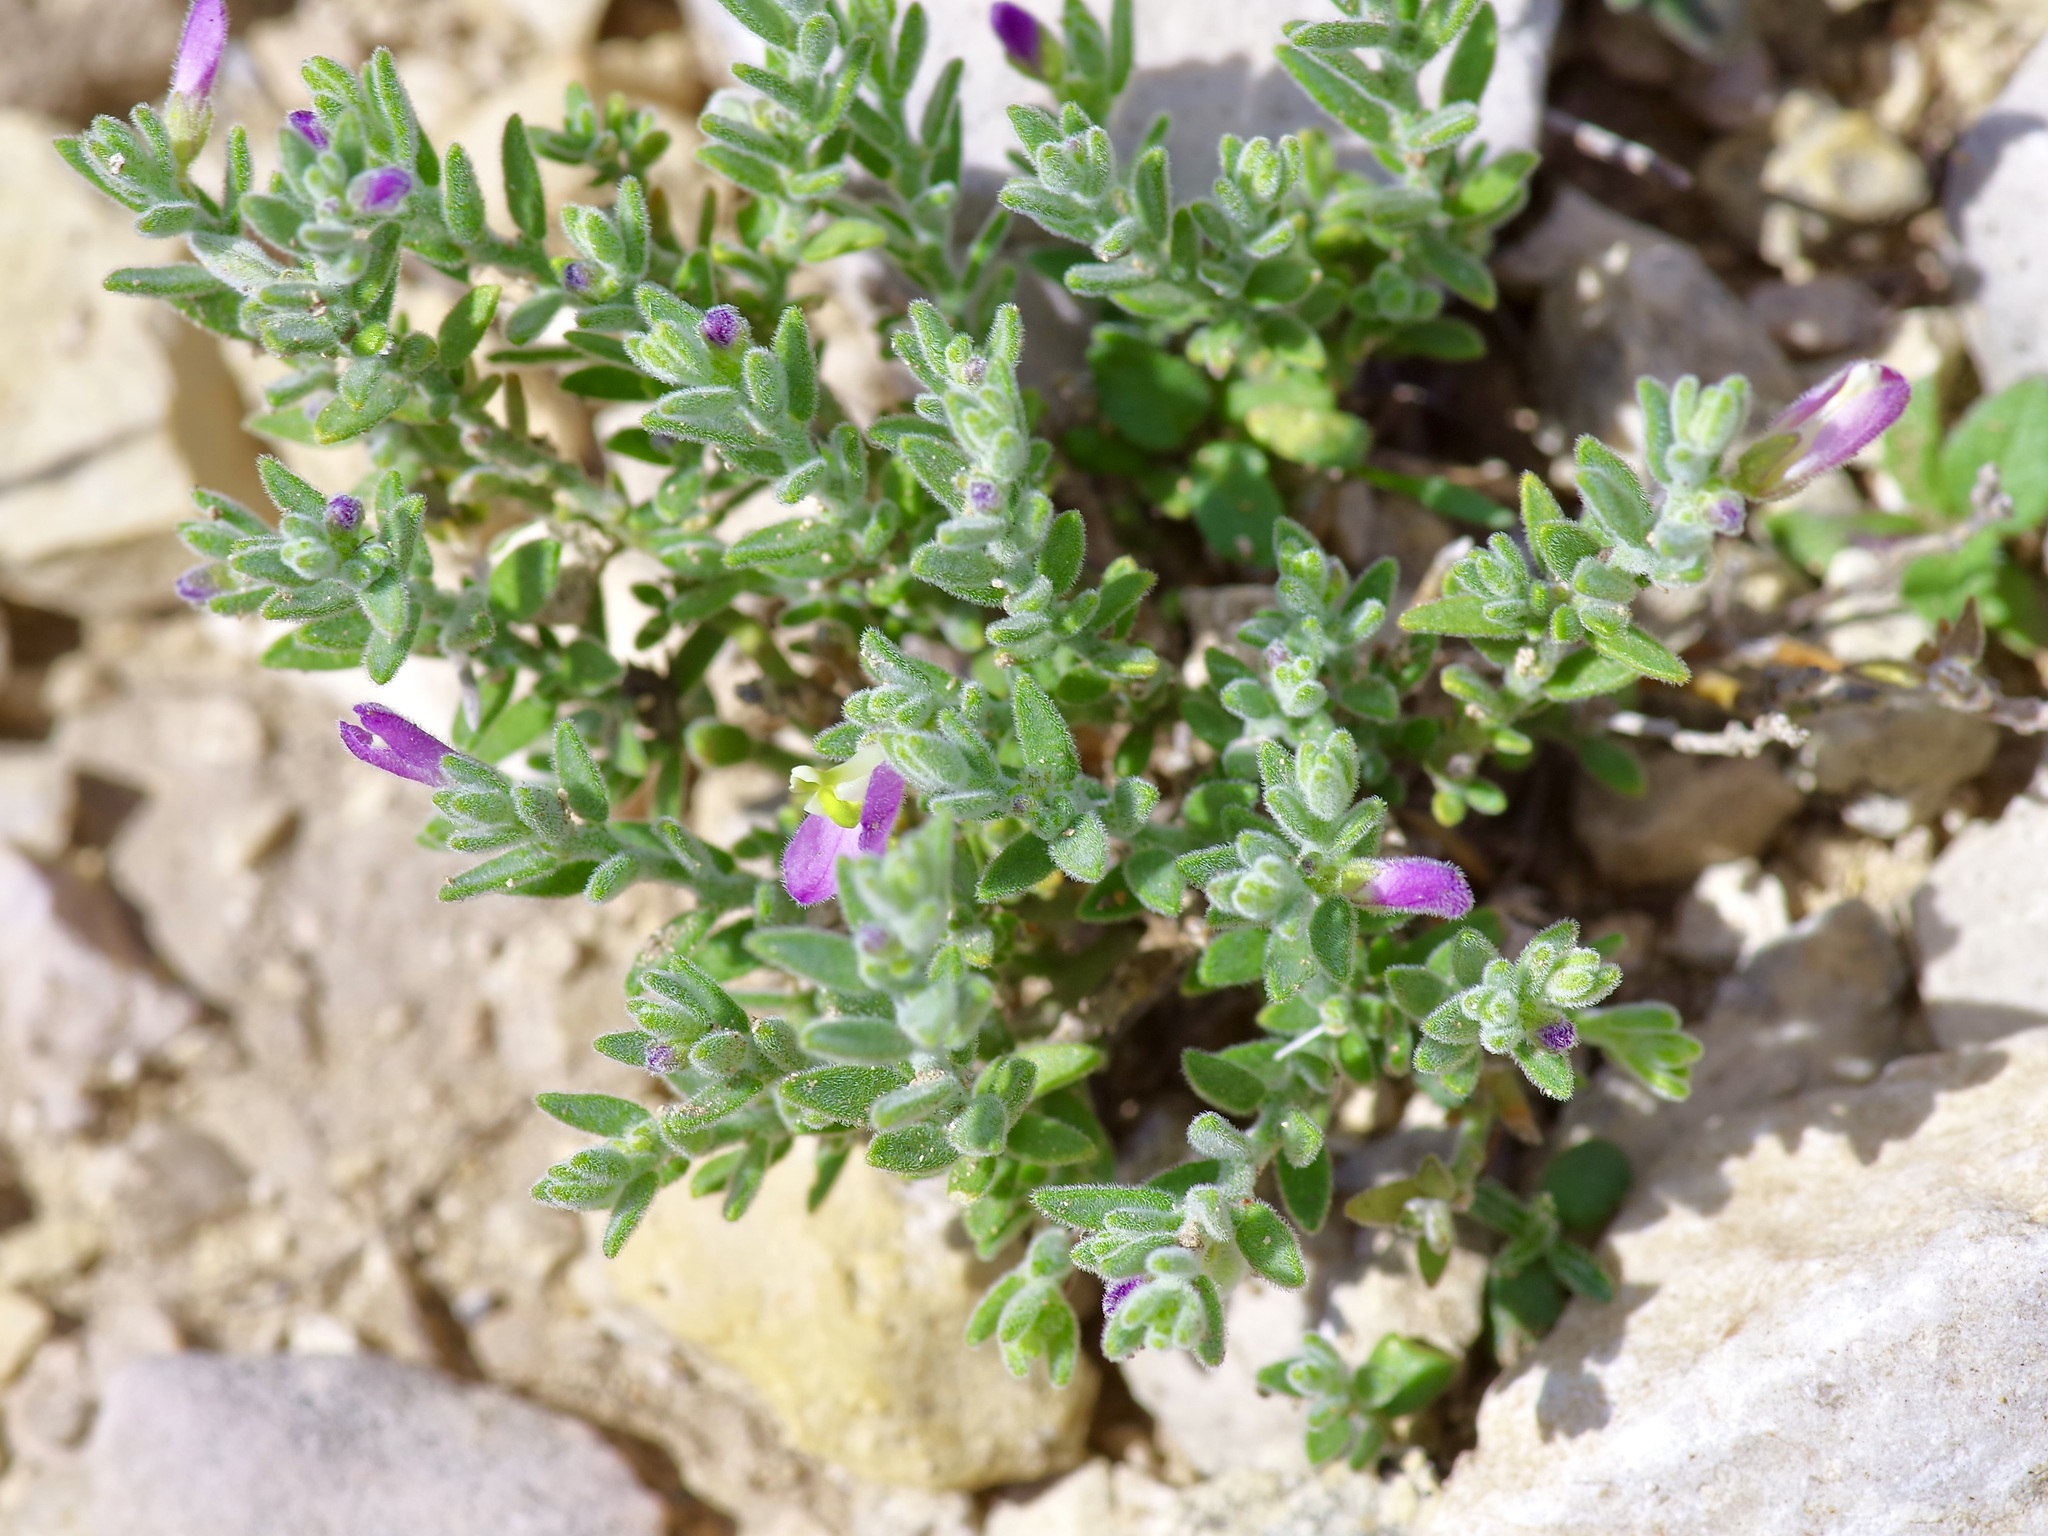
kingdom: Plantae
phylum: Tracheophyta
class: Magnoliopsida
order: Fabales
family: Polygalaceae
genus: Hebecarpa
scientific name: Hebecarpa macradenia
